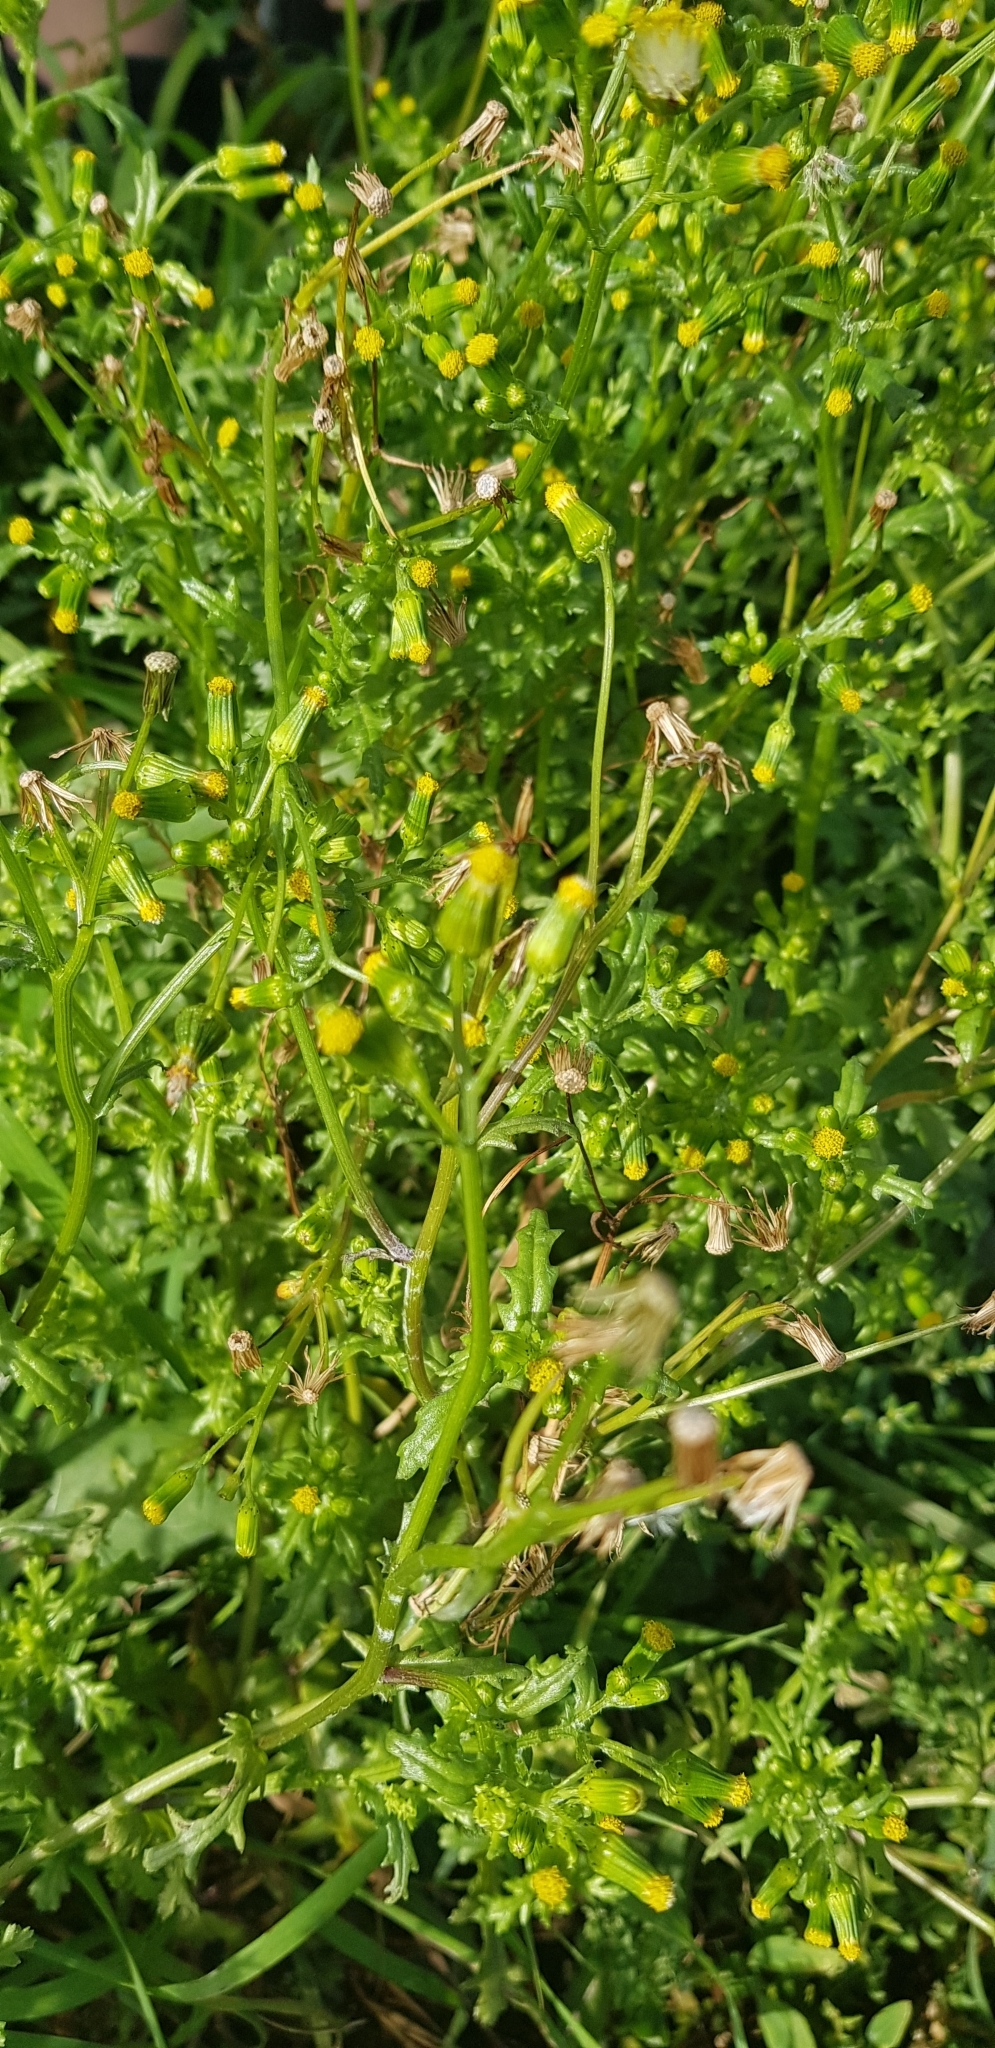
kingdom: Plantae
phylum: Tracheophyta
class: Magnoliopsida
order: Asterales
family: Asteraceae
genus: Senecio
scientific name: Senecio vulgaris
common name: Old-man-in-the-spring
